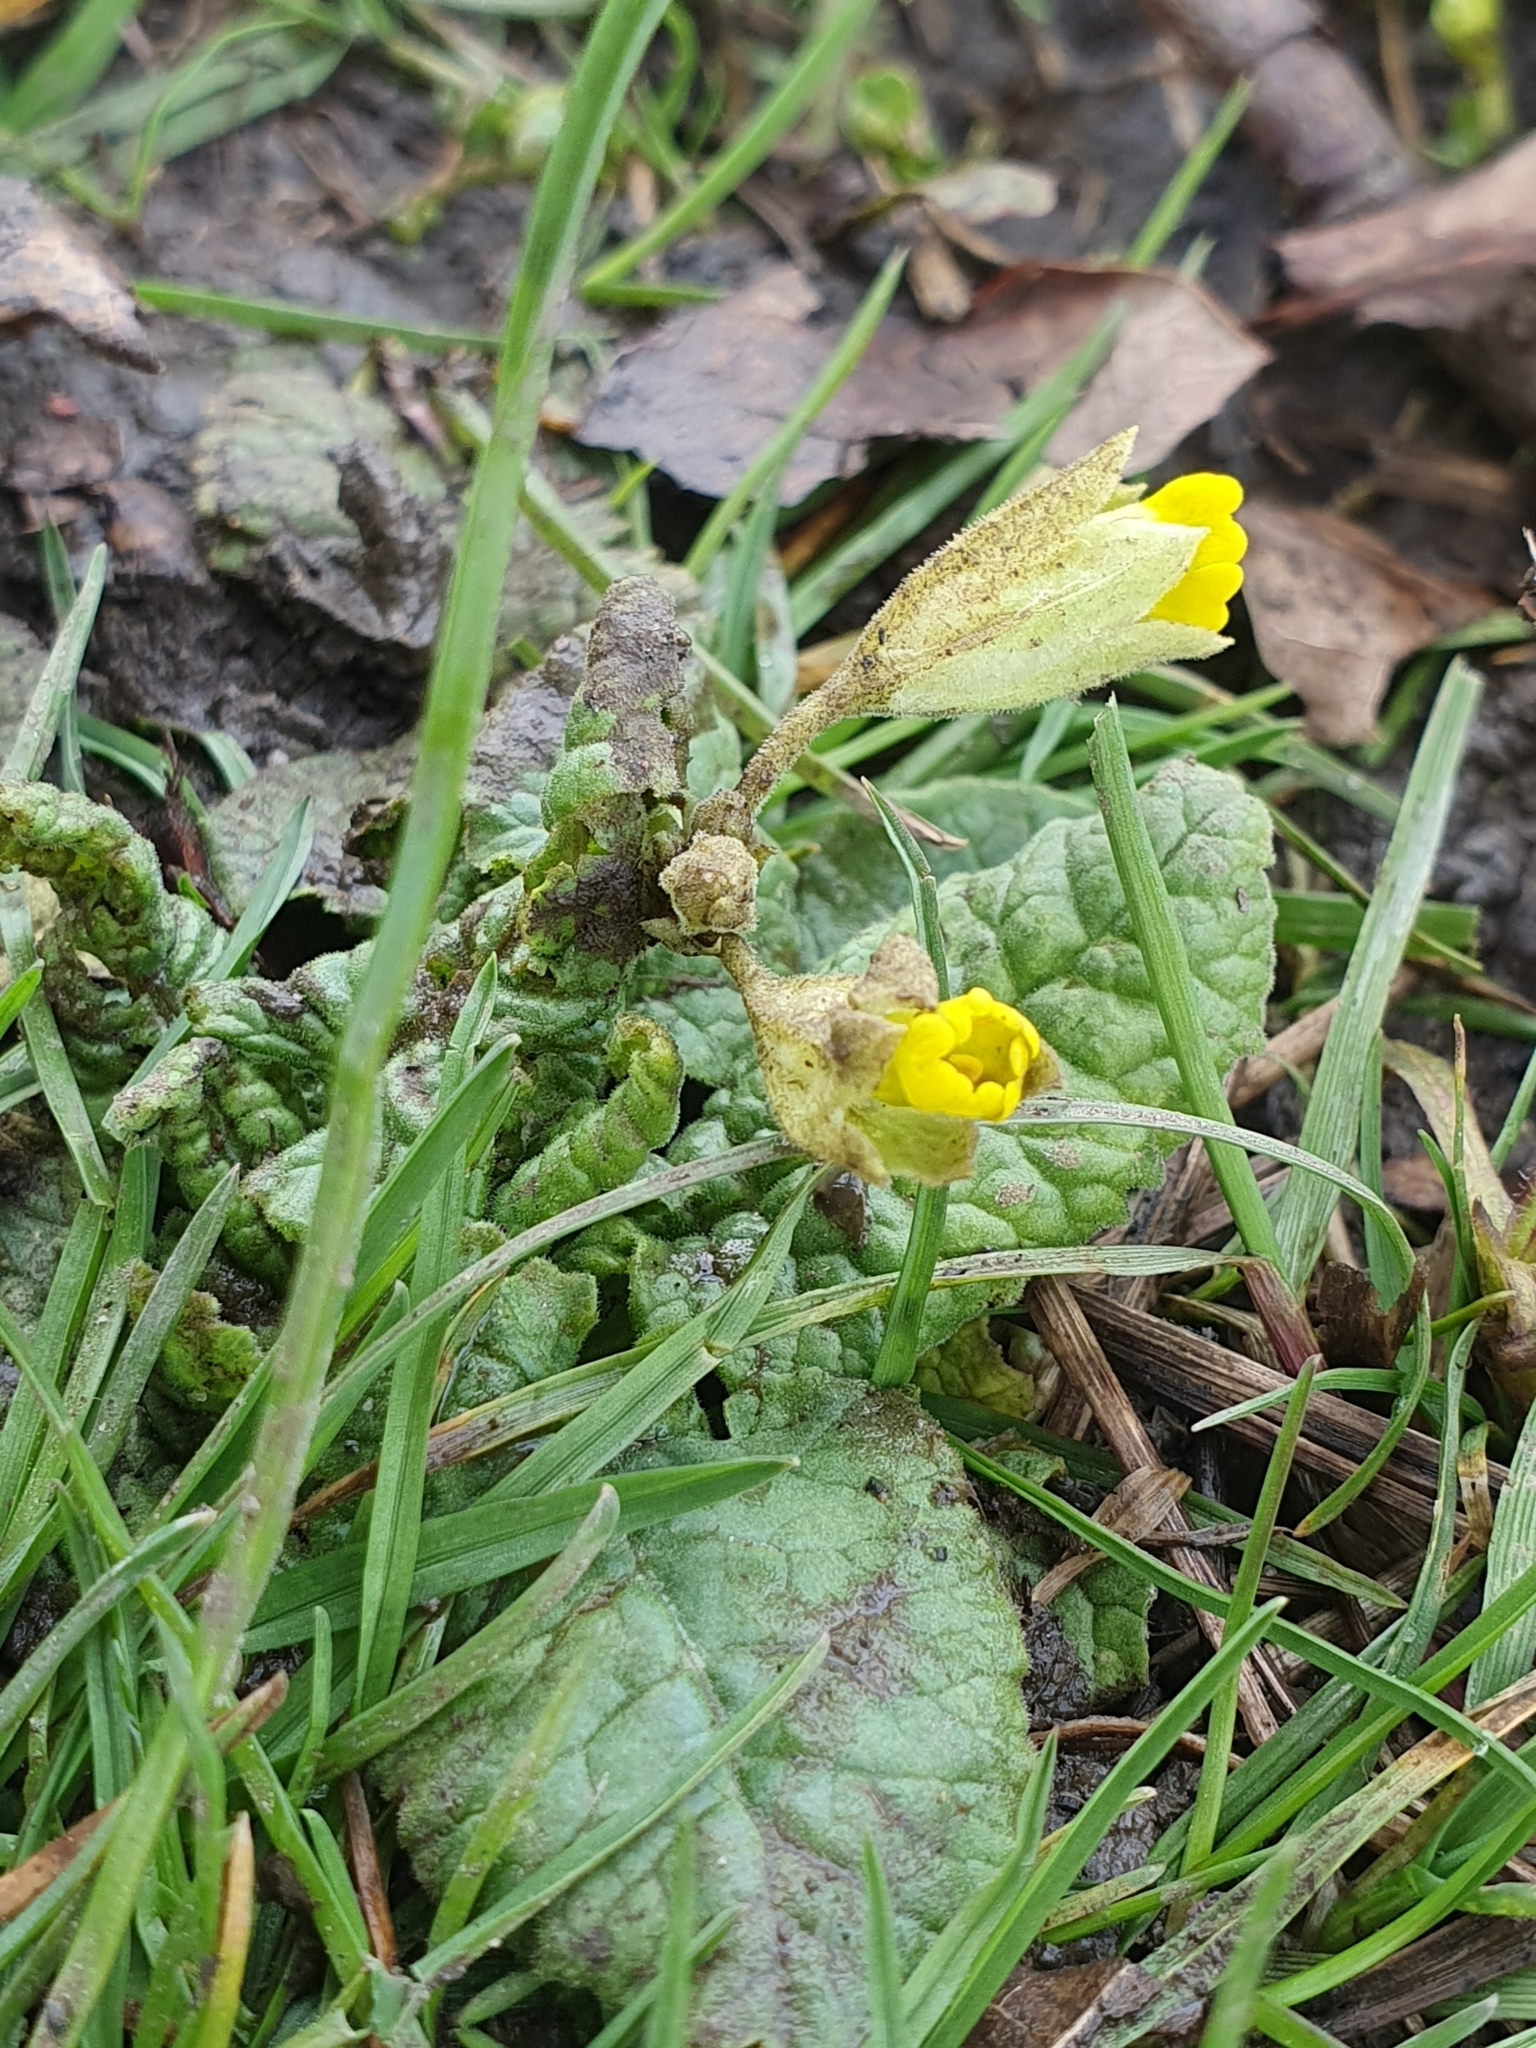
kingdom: Plantae
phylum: Tracheophyta
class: Magnoliopsida
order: Ericales
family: Primulaceae
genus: Primula
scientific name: Primula veris
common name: Cowslip
